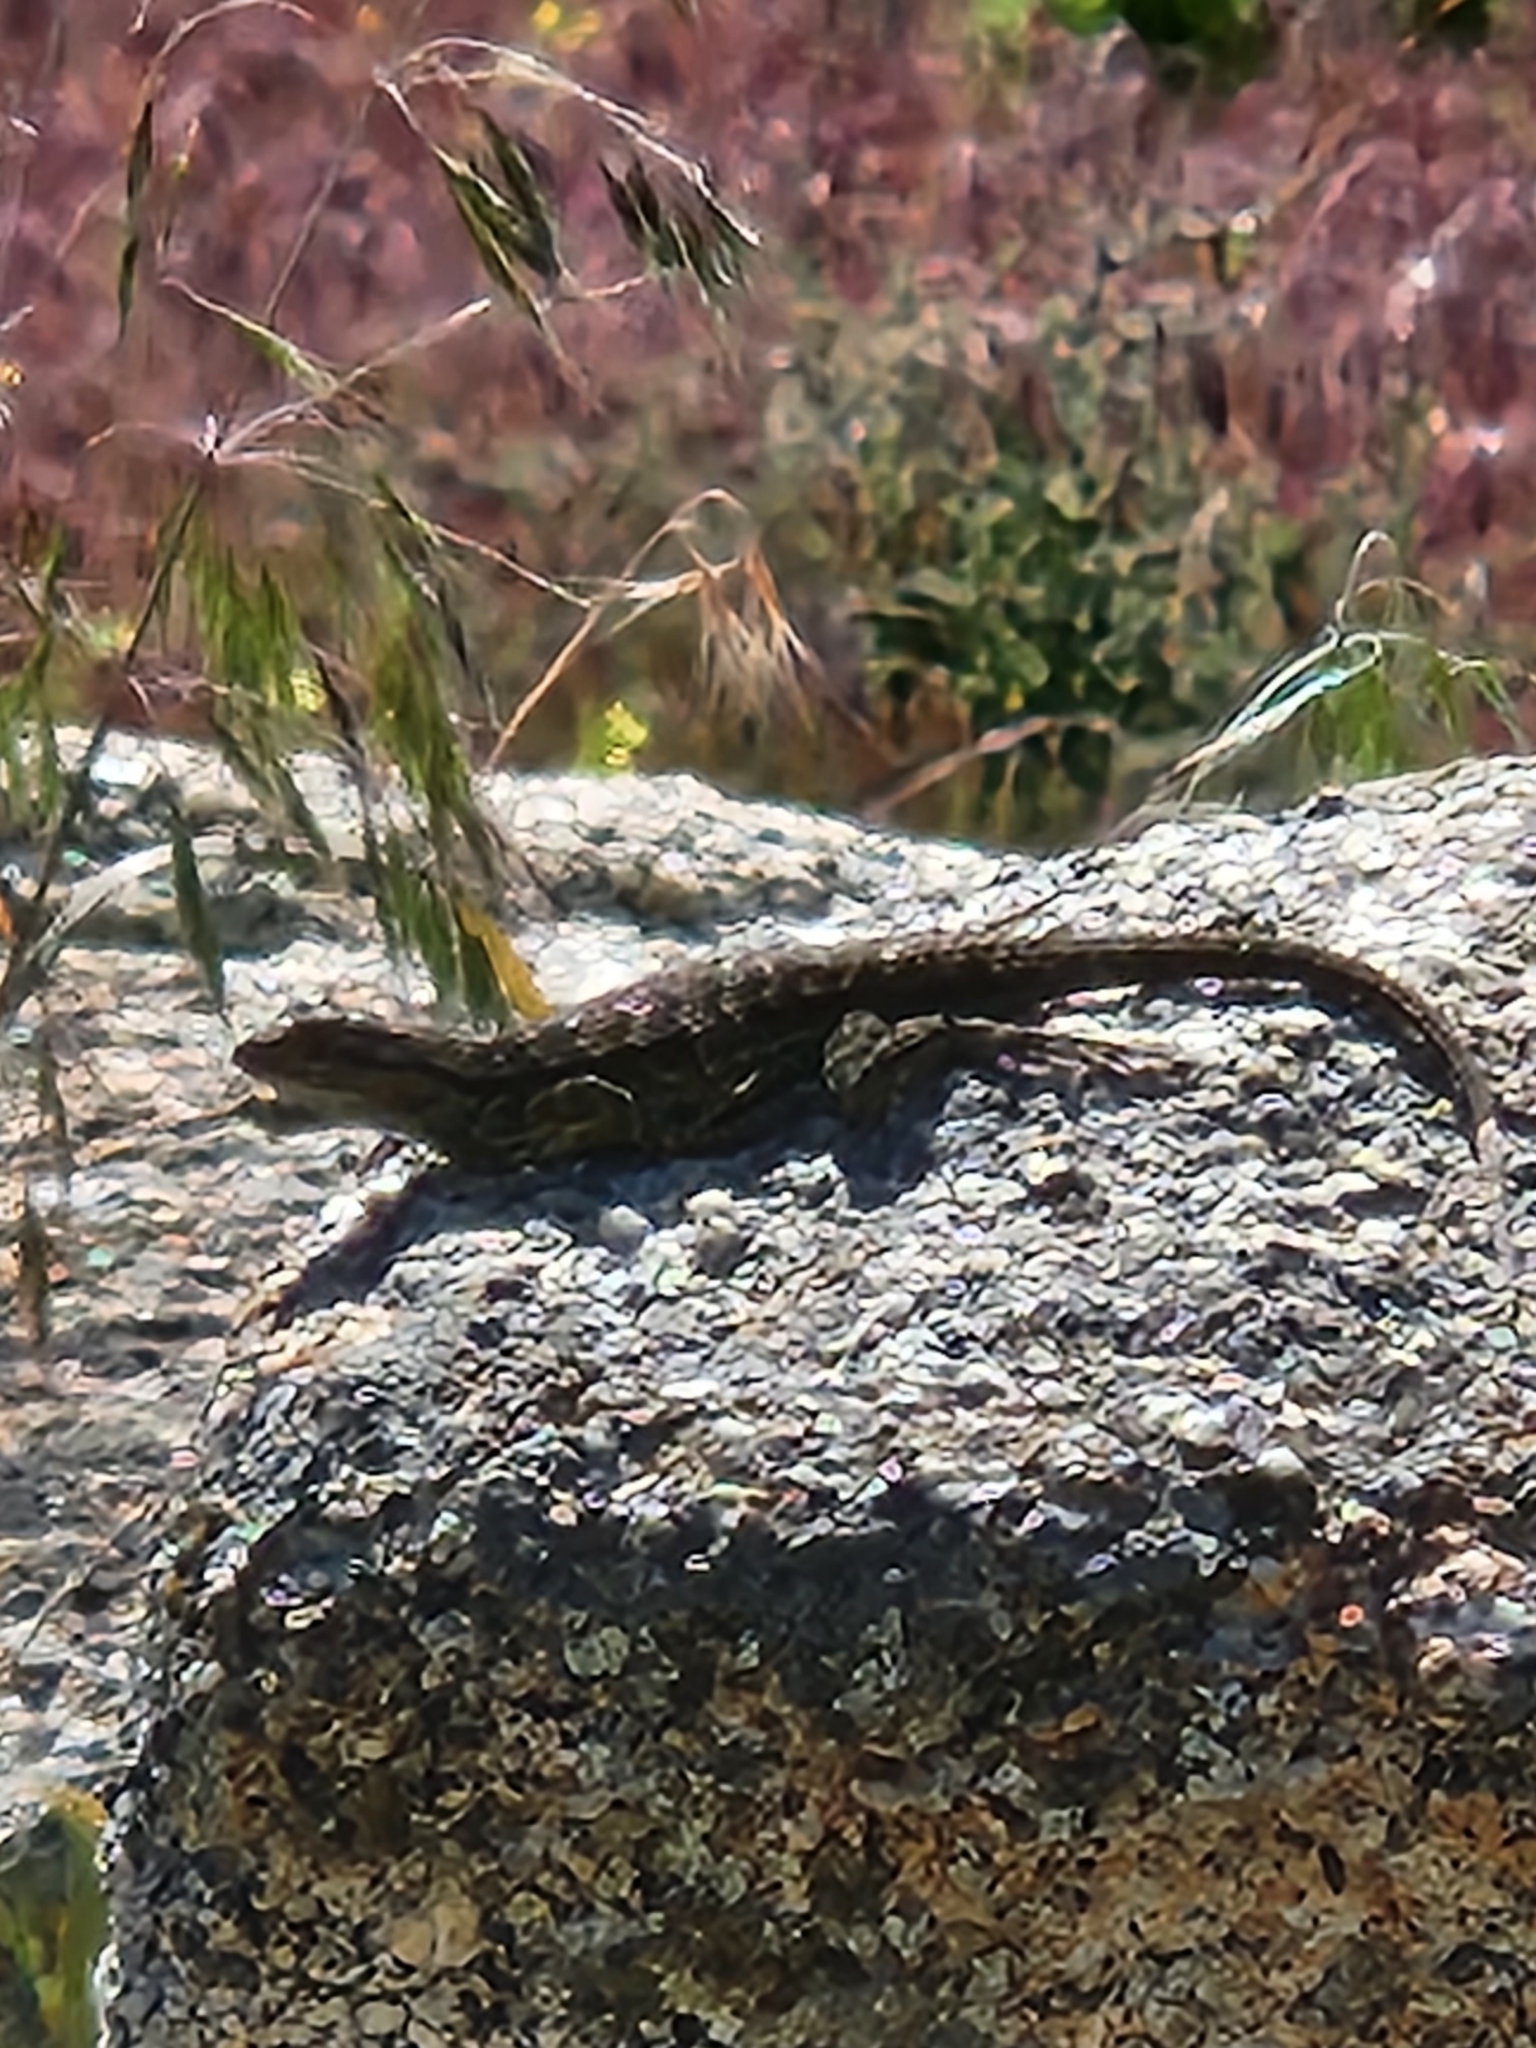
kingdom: Animalia
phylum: Chordata
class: Squamata
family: Phrynosomatidae
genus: Sceloporus
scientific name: Sceloporus occidentalis
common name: Western fence lizard
